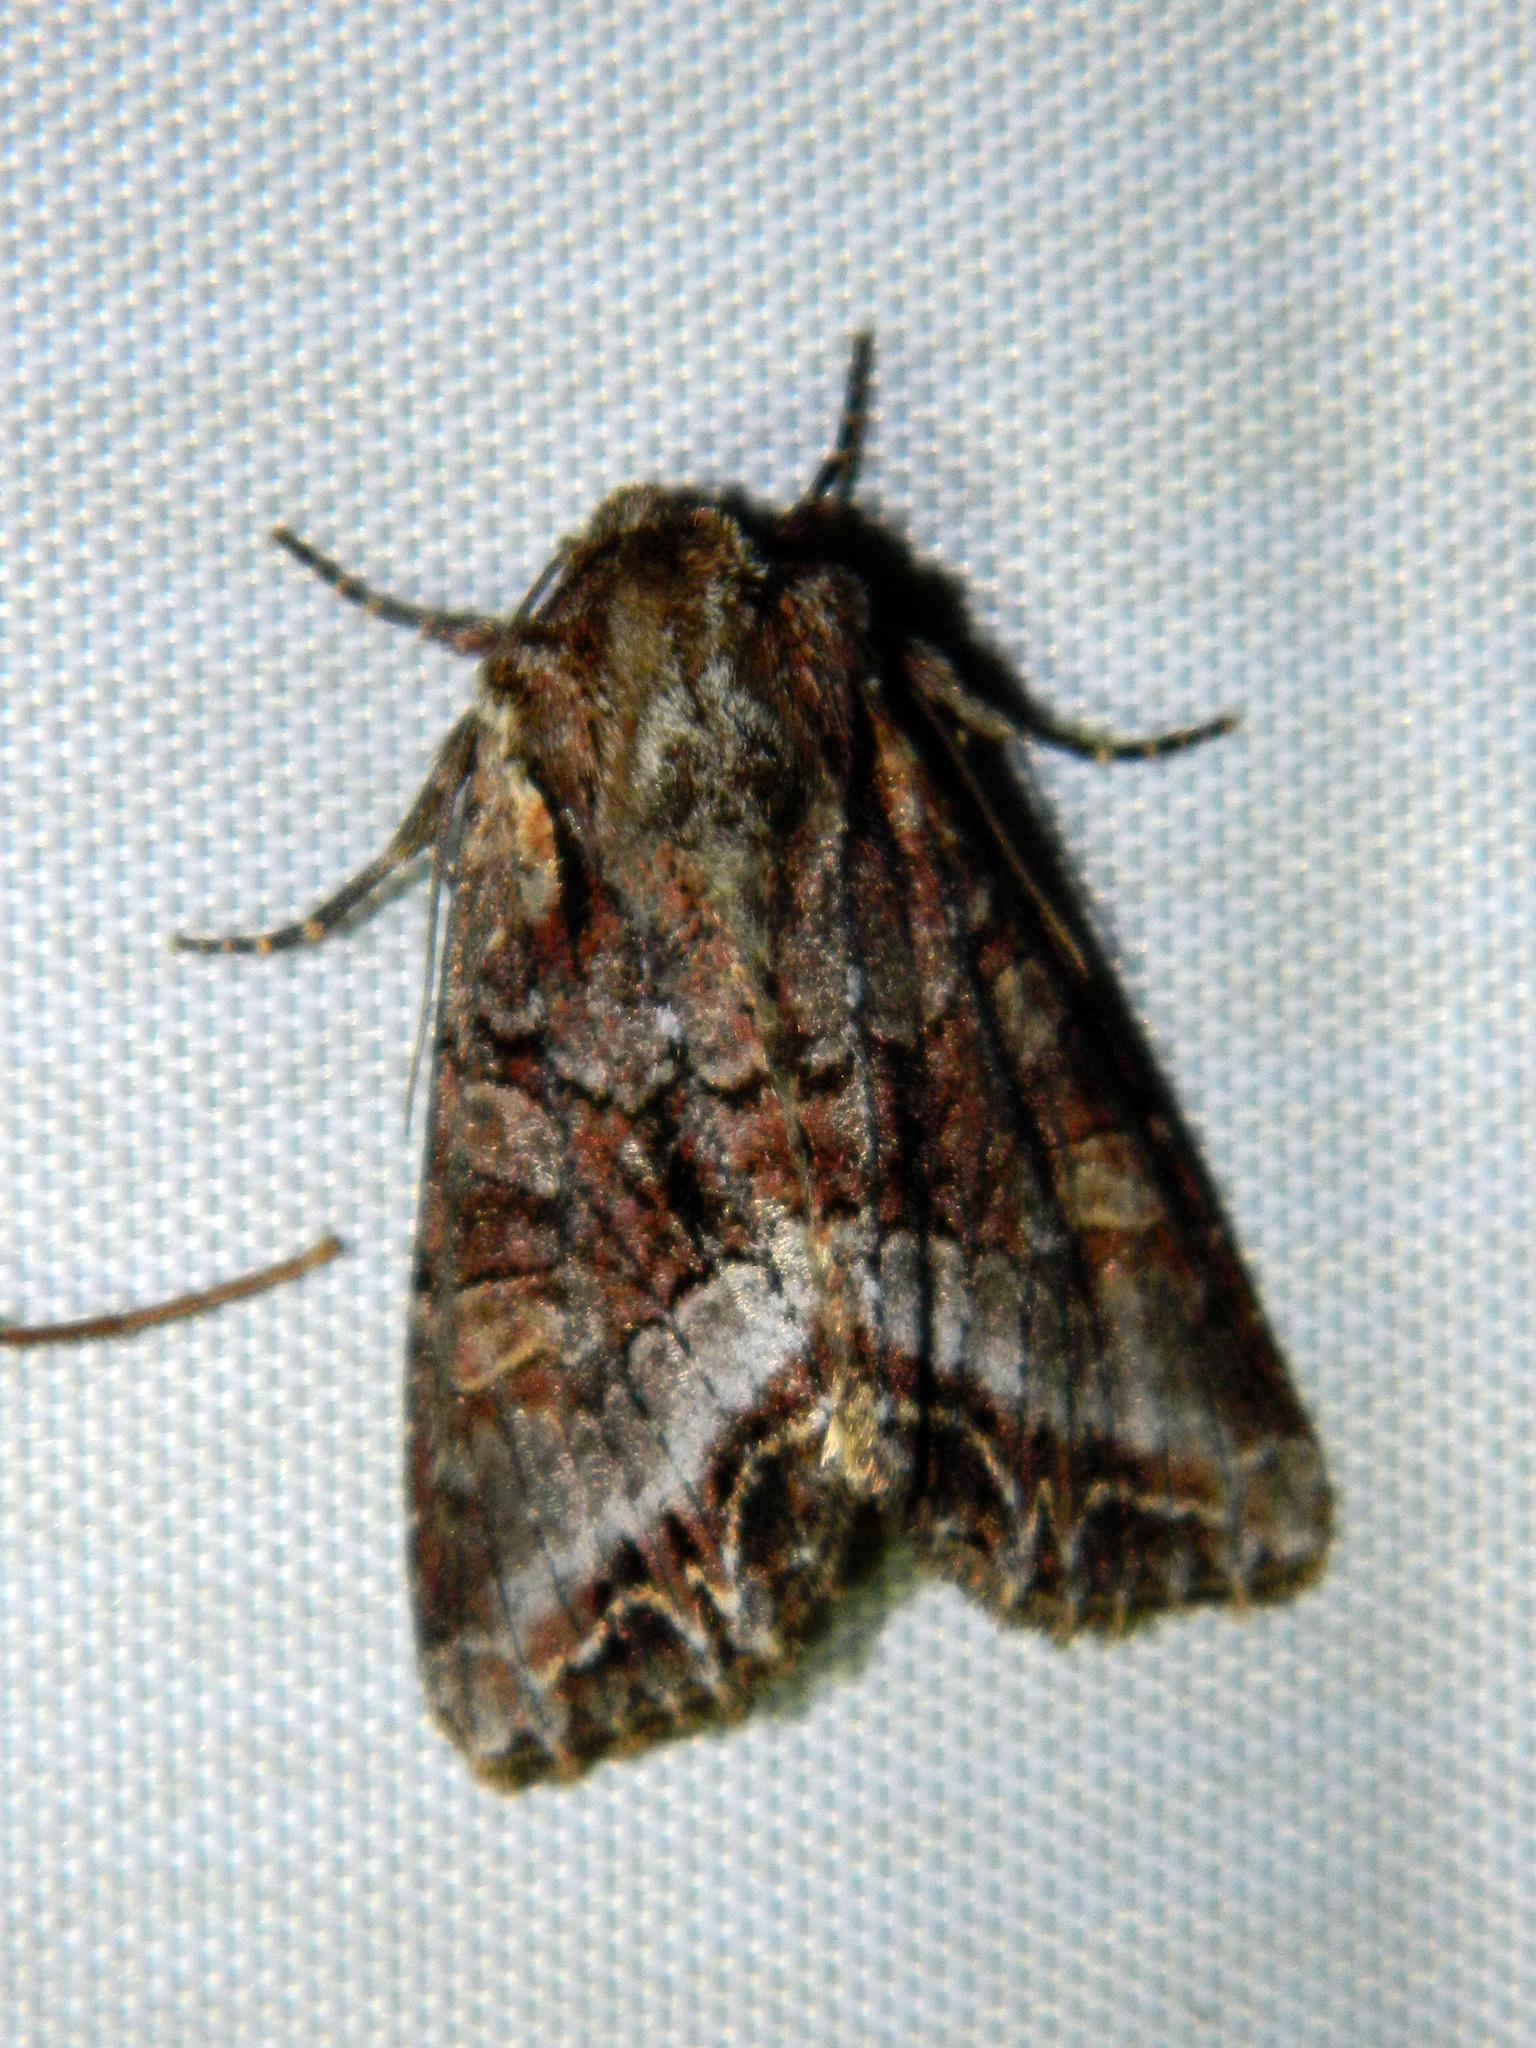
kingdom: Animalia
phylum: Arthropoda
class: Insecta
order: Lepidoptera
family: Noctuidae
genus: Lacanobia
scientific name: Lacanobia grandis
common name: Grand arches moth
